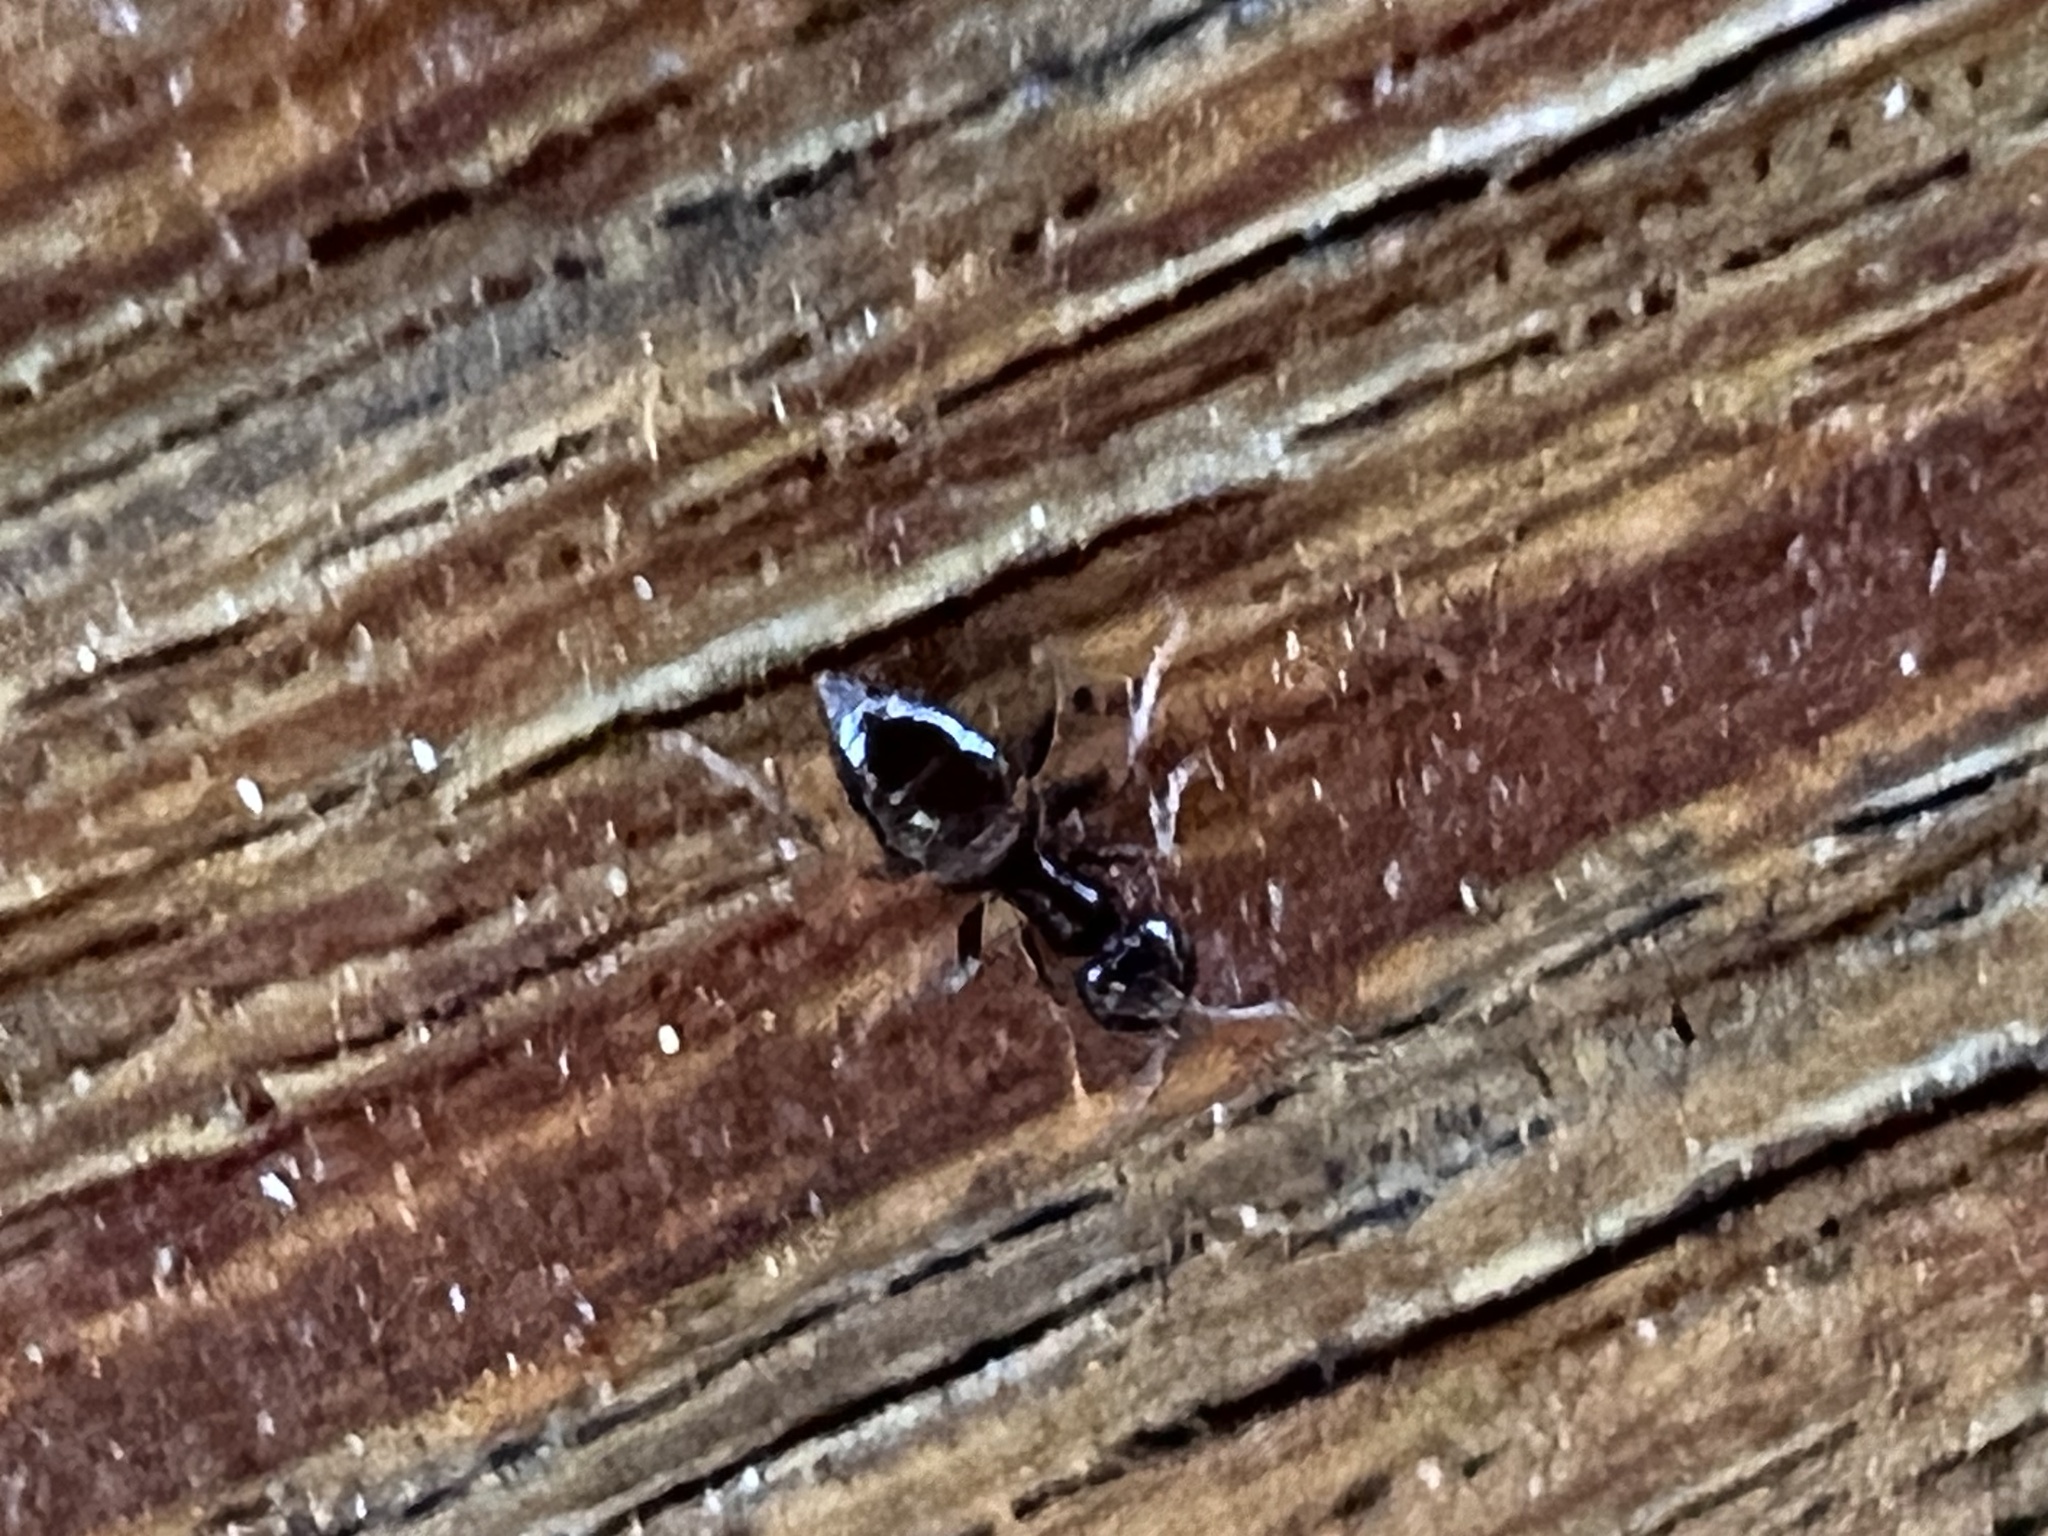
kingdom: Animalia
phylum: Arthropoda
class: Insecta
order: Hymenoptera
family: Formicidae
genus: Brachymyrmex
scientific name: Brachymyrmex patagonicus
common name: Dark rover ant
